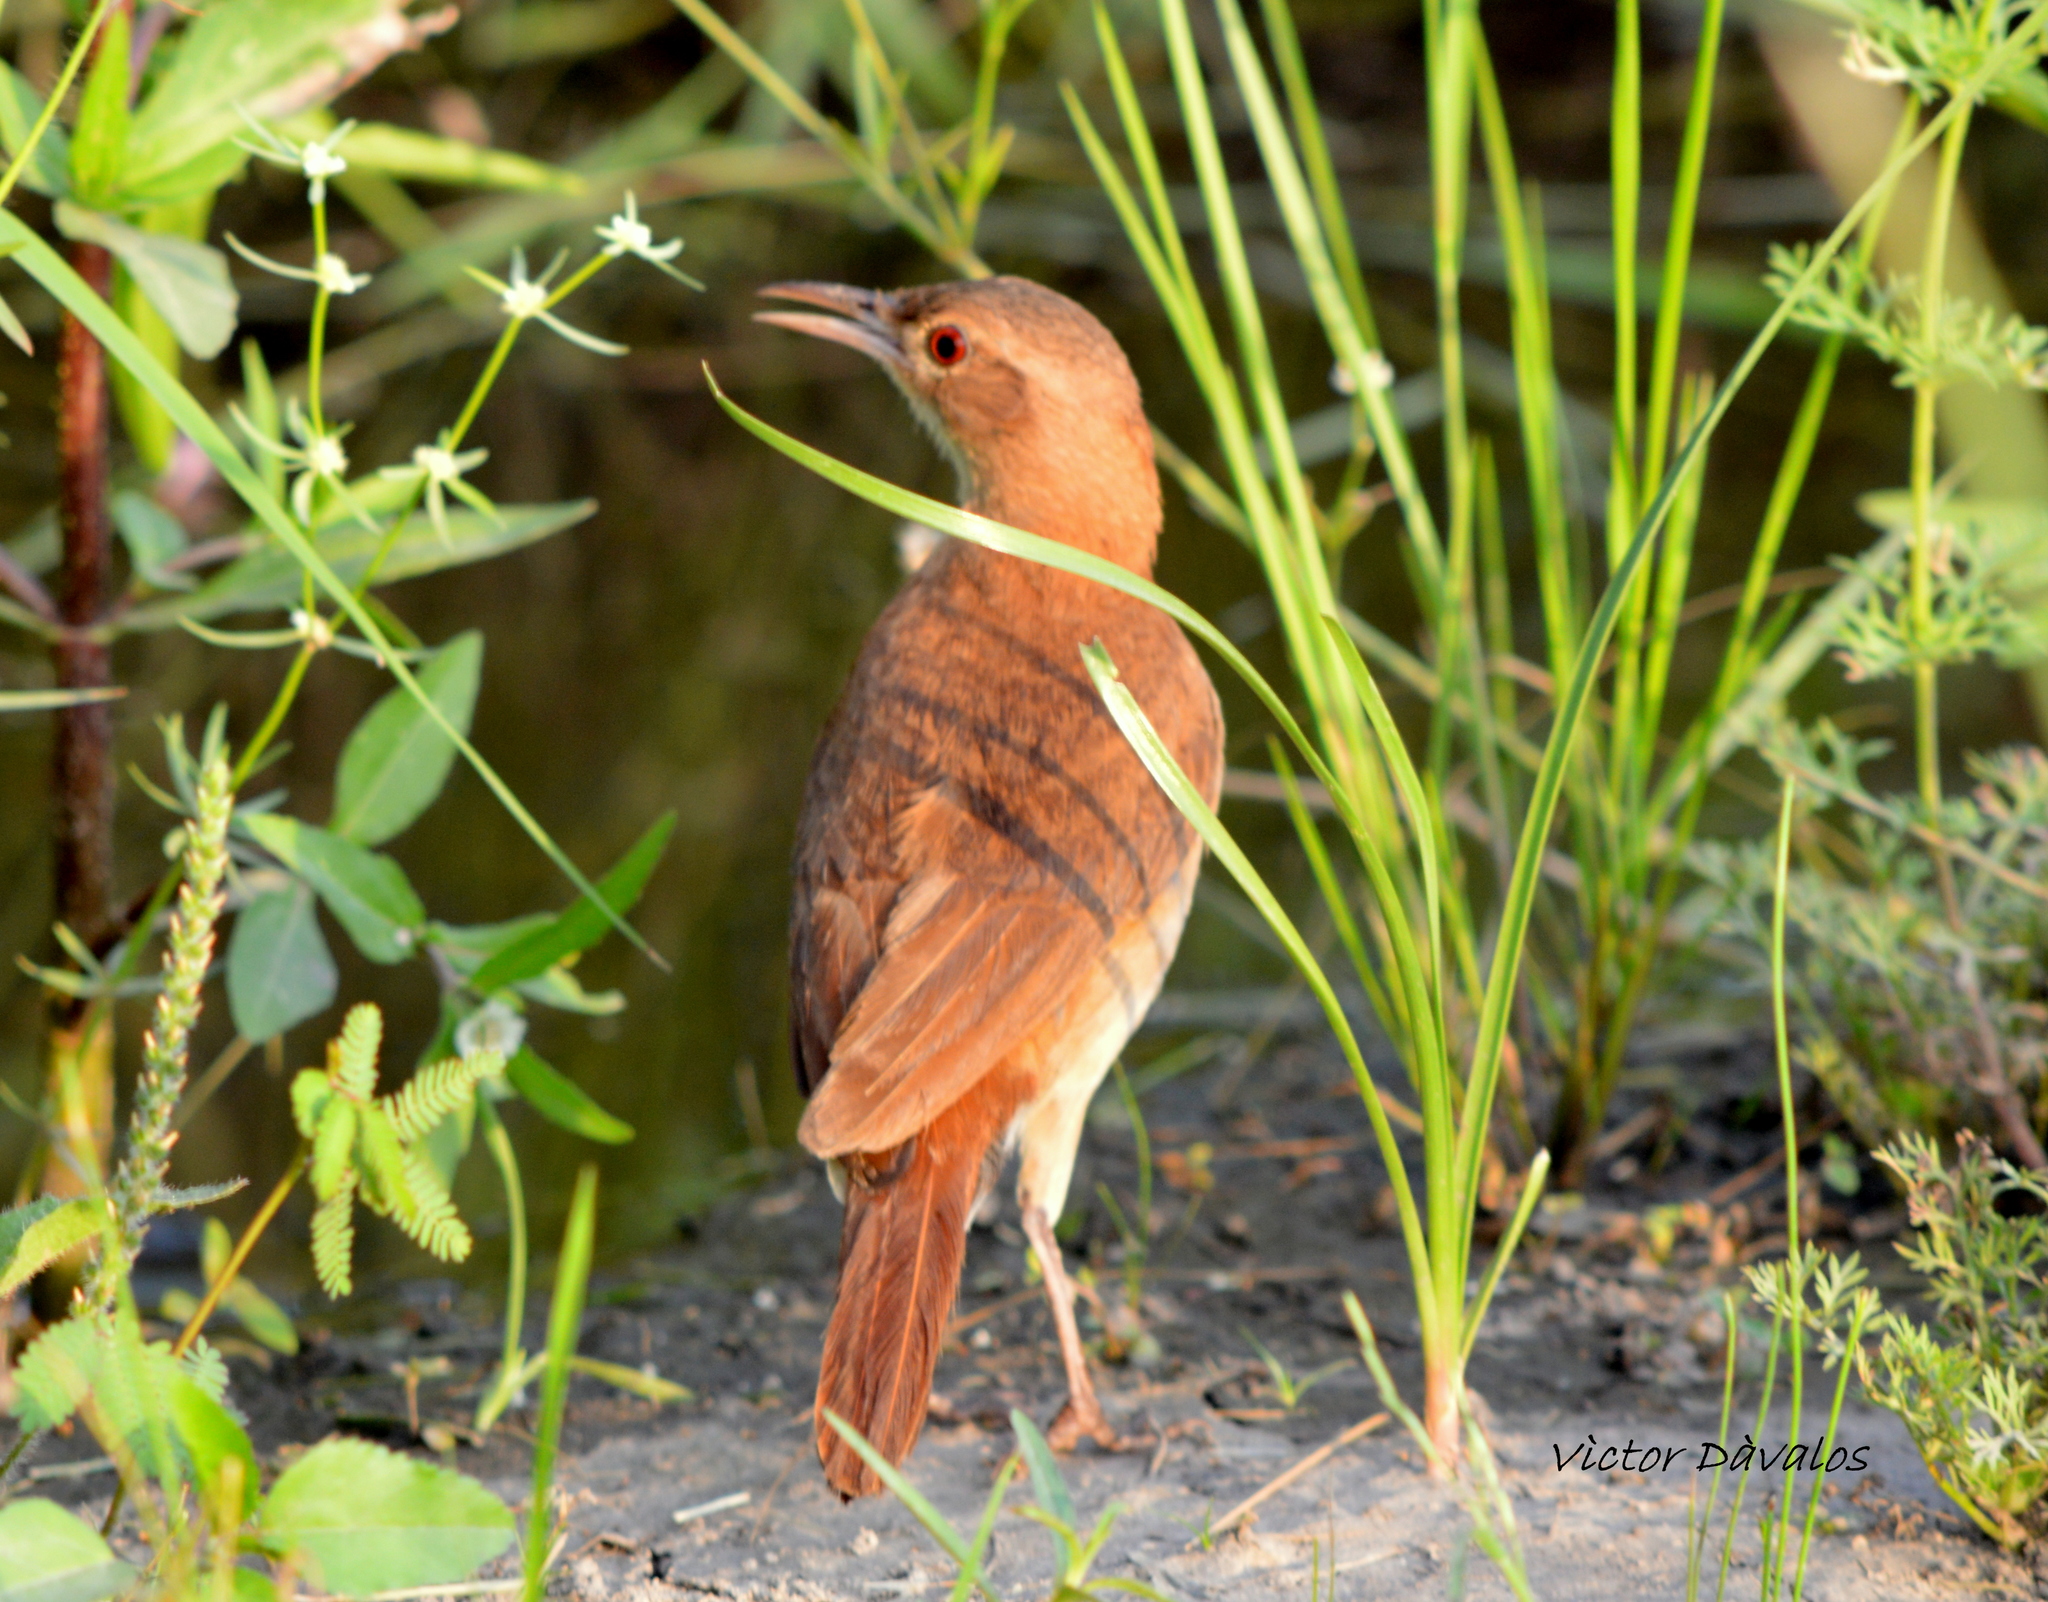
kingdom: Animalia
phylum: Chordata
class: Aves
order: Passeriformes
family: Furnariidae
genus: Furnarius
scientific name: Furnarius rufus
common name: Rufous hornero
